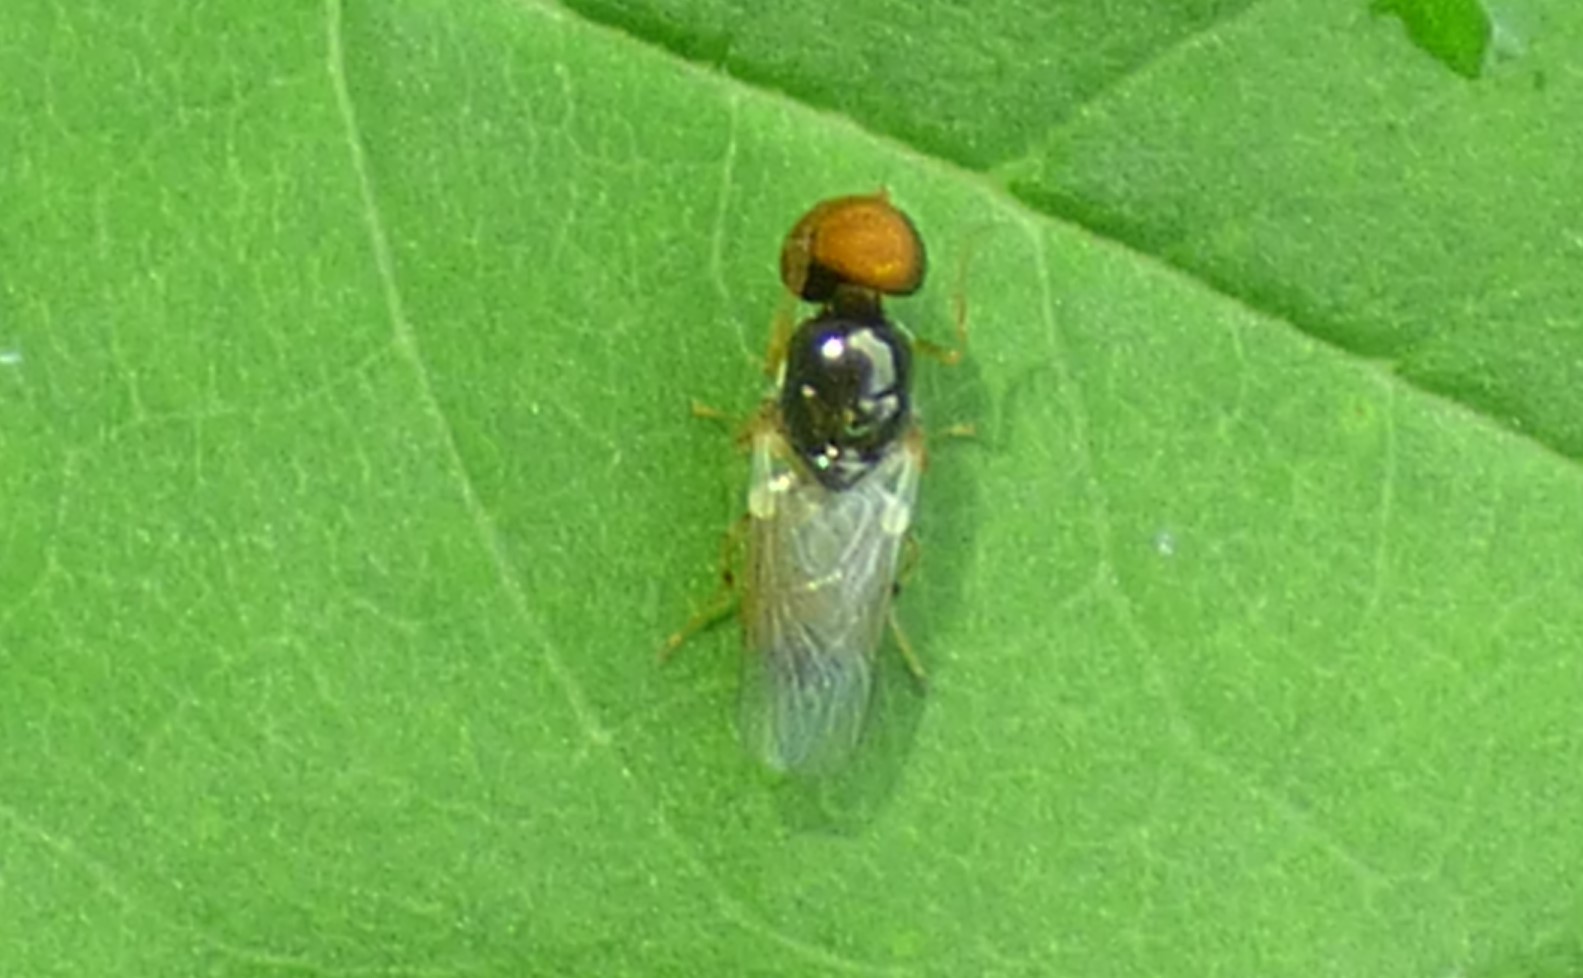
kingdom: Animalia
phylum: Arthropoda
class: Insecta
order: Diptera
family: Stratiomyidae
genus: Microchrysa
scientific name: Microchrysa flaviventris
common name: Soldier fly
